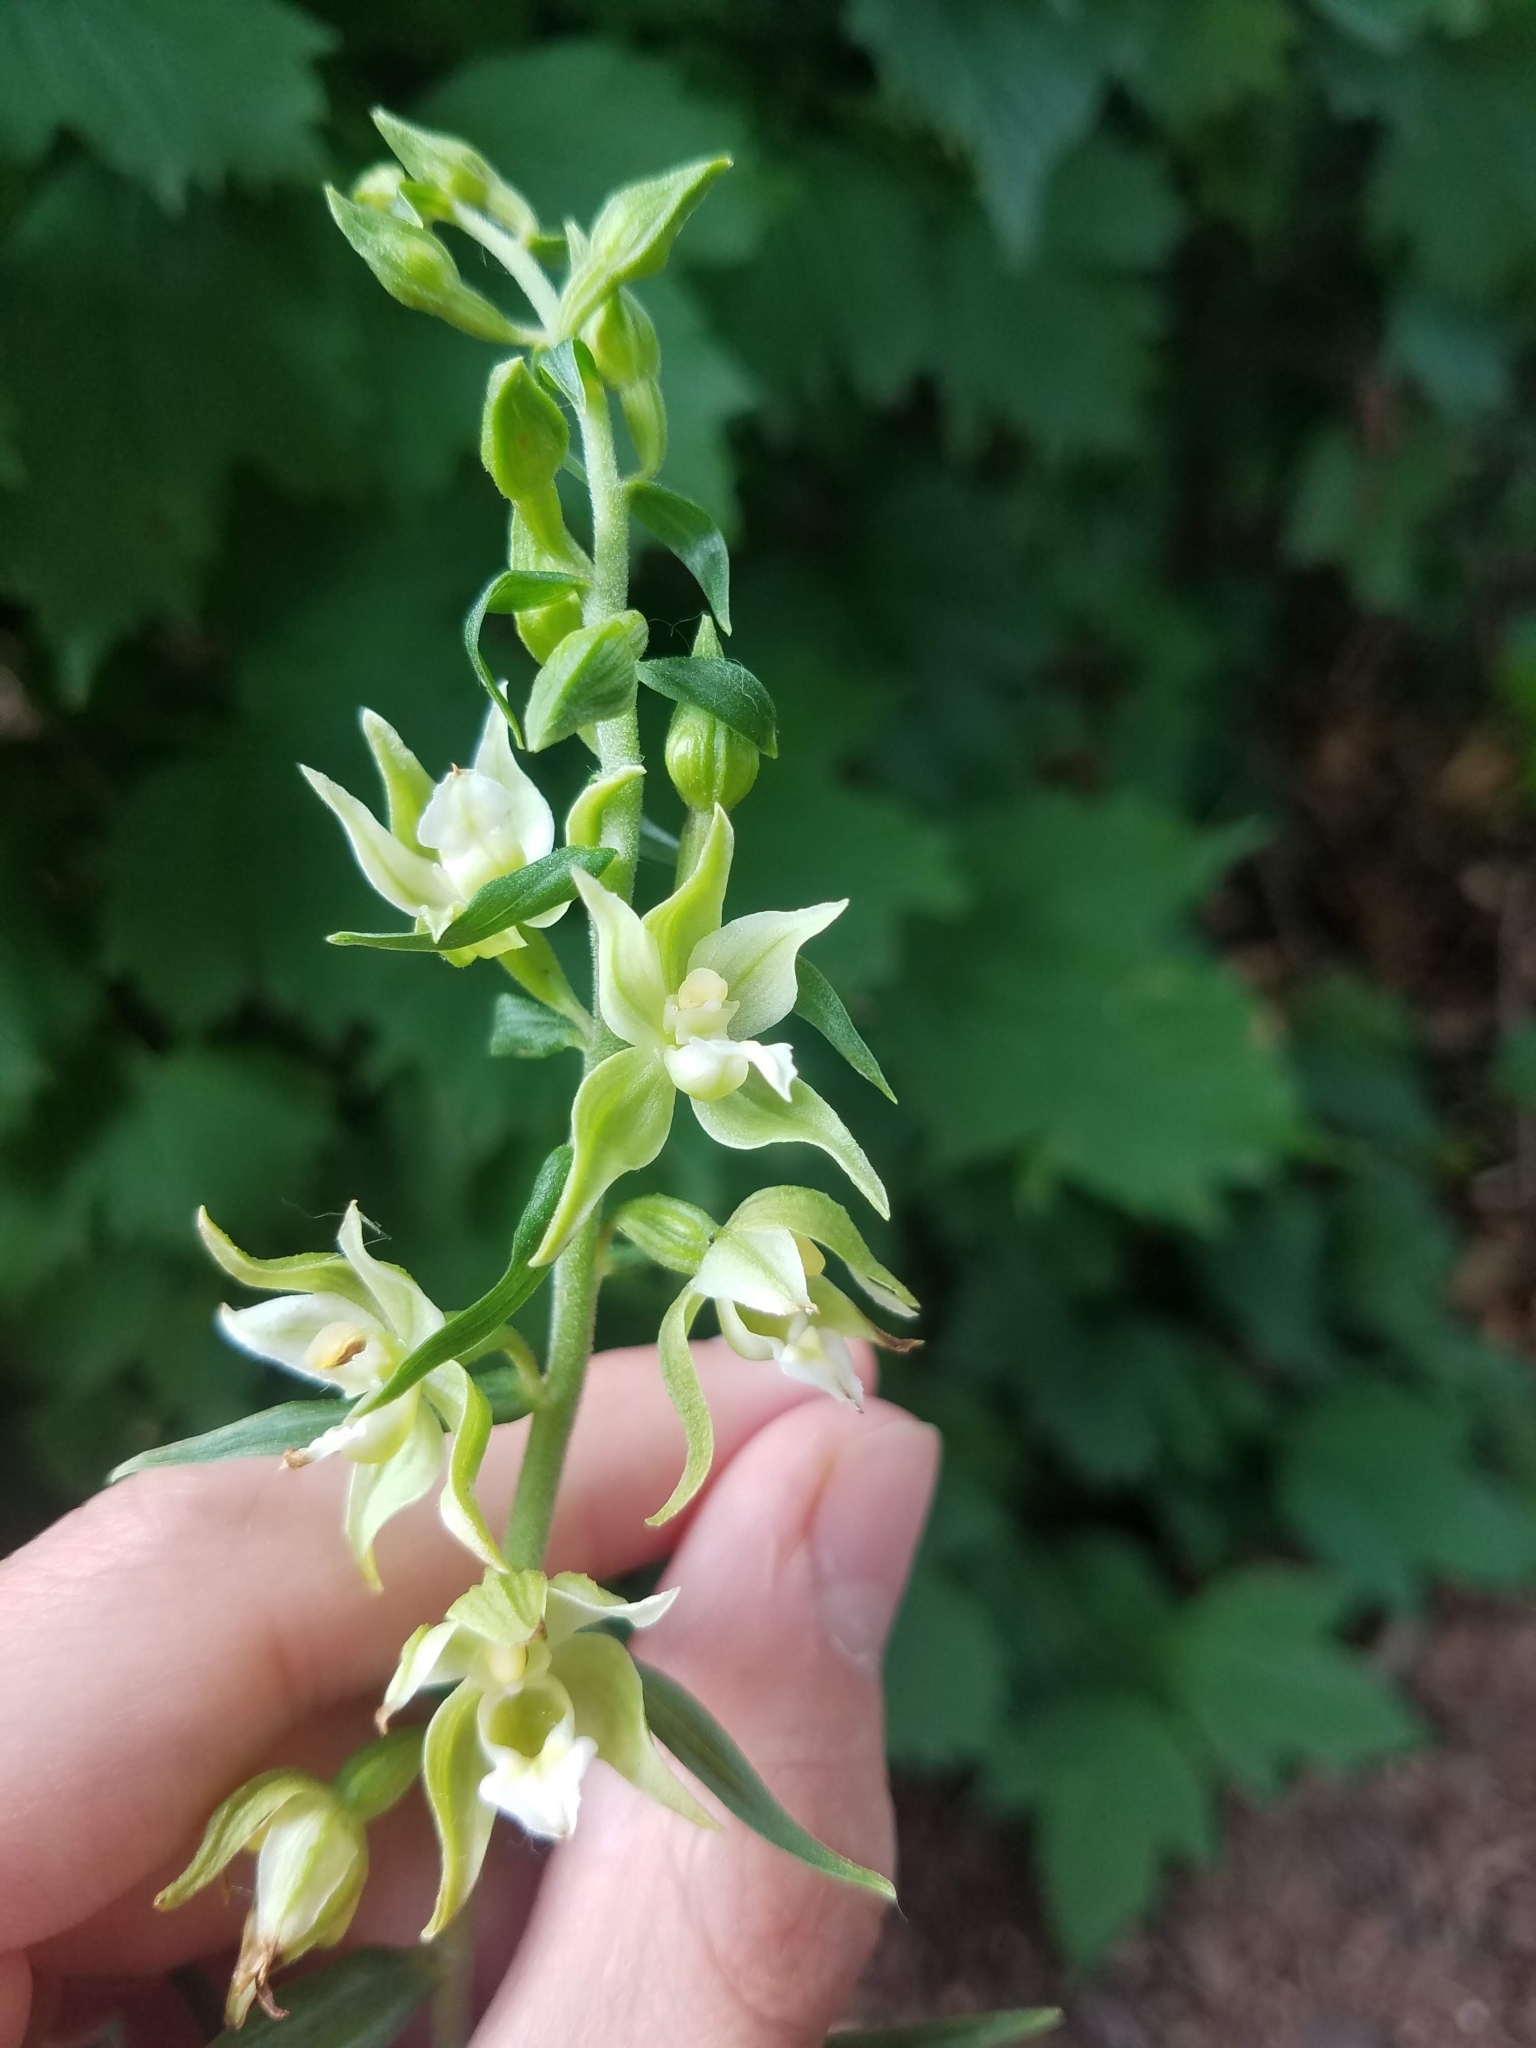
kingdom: Plantae
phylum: Tracheophyta
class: Liliopsida
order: Asparagales
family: Orchidaceae
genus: Epipactis
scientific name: Epipactis helleborine
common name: Broad-leaved helleborine
